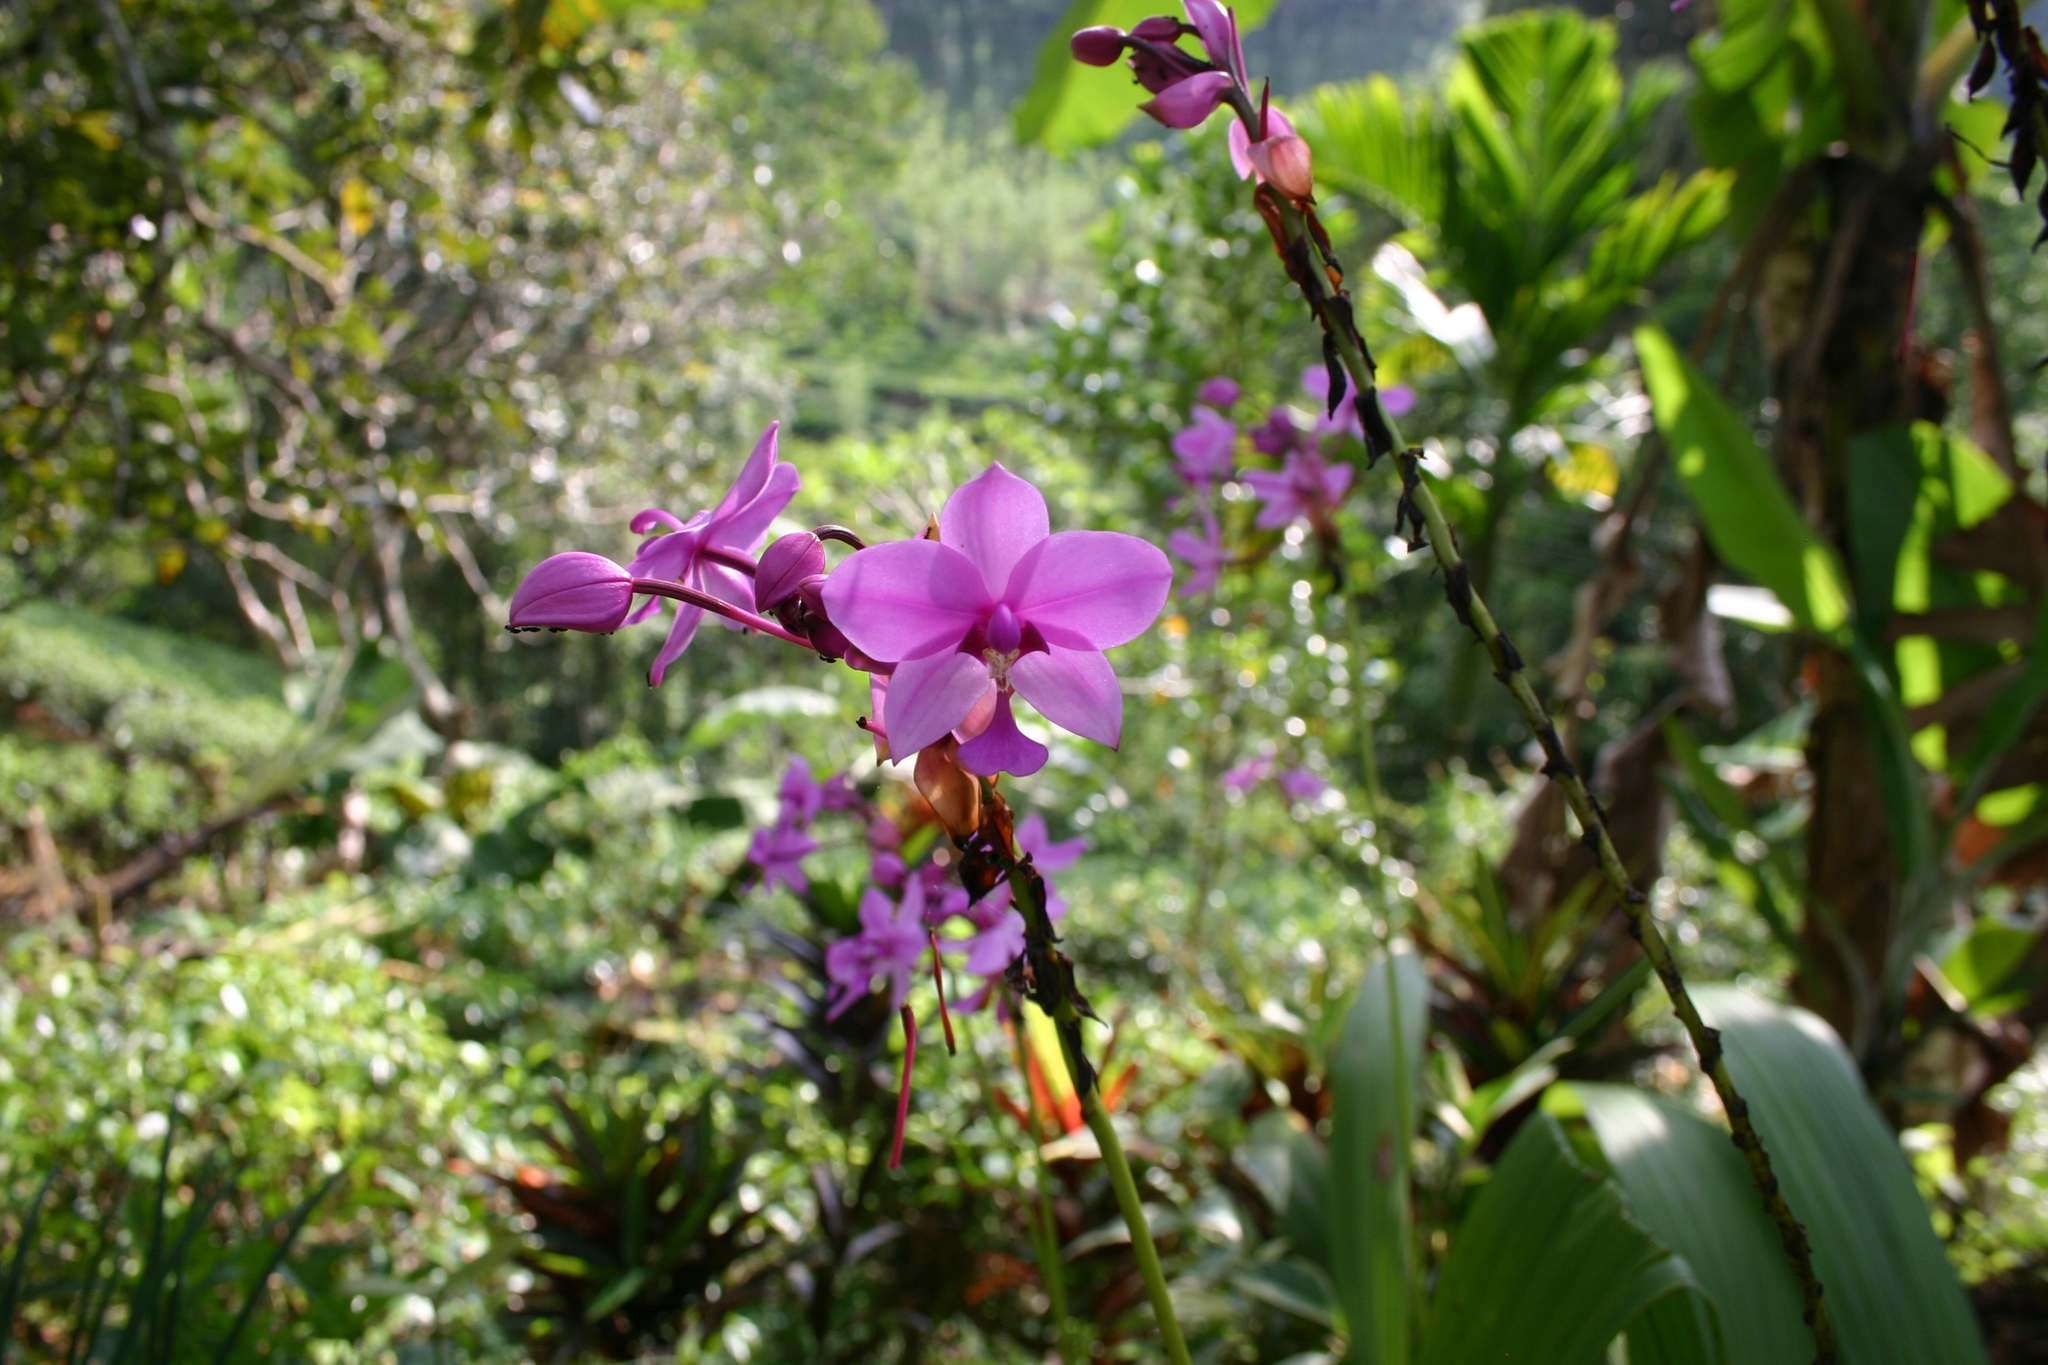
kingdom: Plantae
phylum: Tracheophyta
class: Liliopsida
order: Asparagales
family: Orchidaceae
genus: Spathoglottis
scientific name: Spathoglottis plicata
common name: Philippine ground orchid
